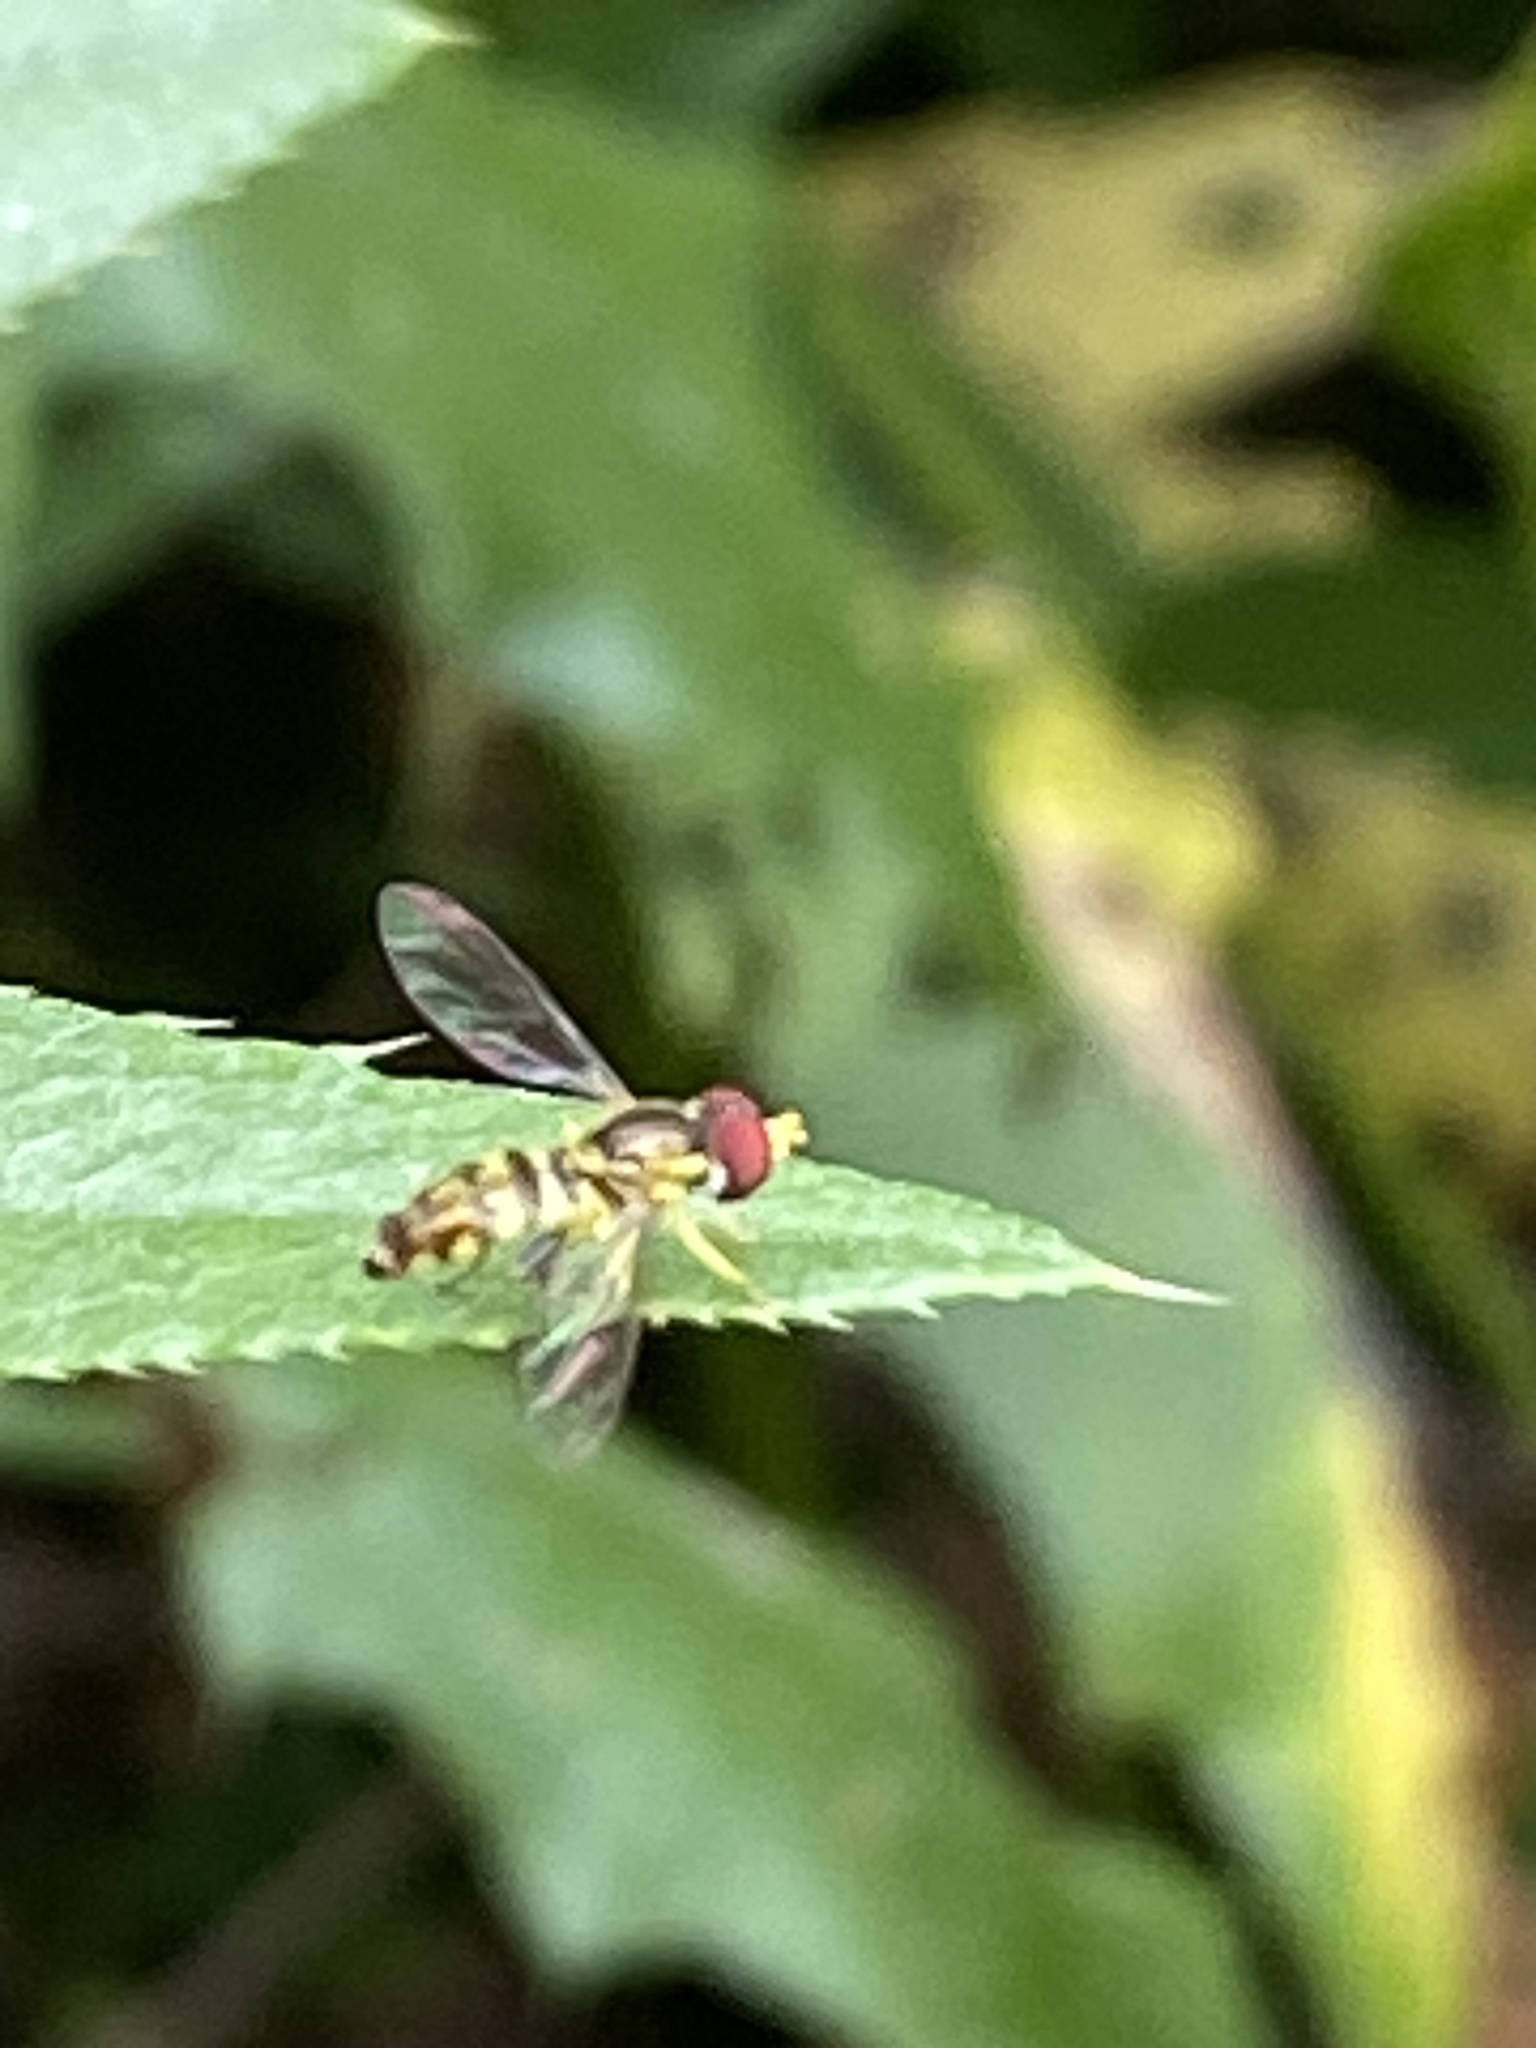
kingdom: Animalia
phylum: Arthropoda
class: Insecta
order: Diptera
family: Syrphidae
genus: Toxomerus
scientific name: Toxomerus geminatus
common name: Eastern calligrapher
